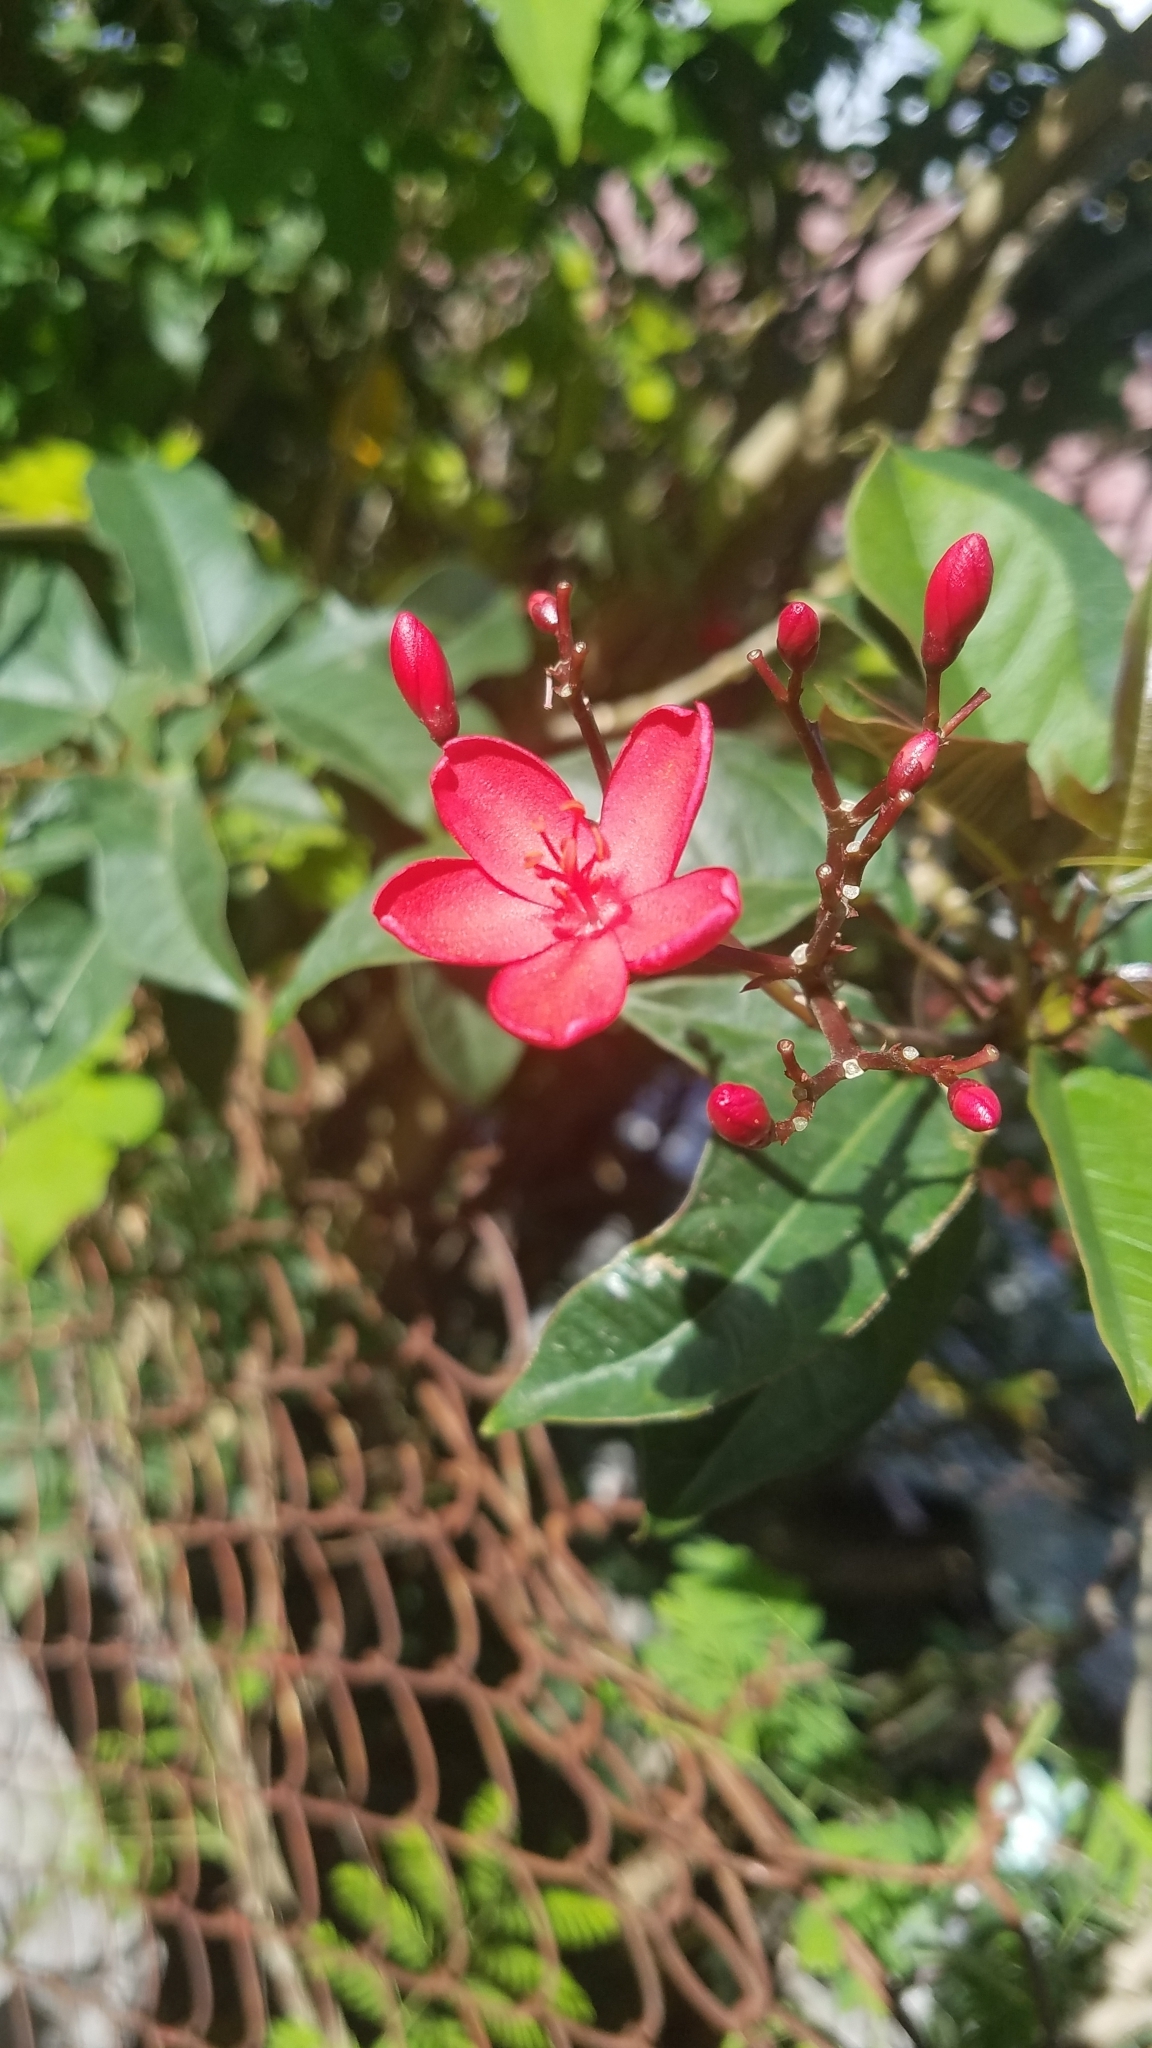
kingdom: Plantae
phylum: Tracheophyta
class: Magnoliopsida
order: Malpighiales
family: Euphorbiaceae
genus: Jatropha
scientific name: Jatropha integerrima
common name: Peregrina
